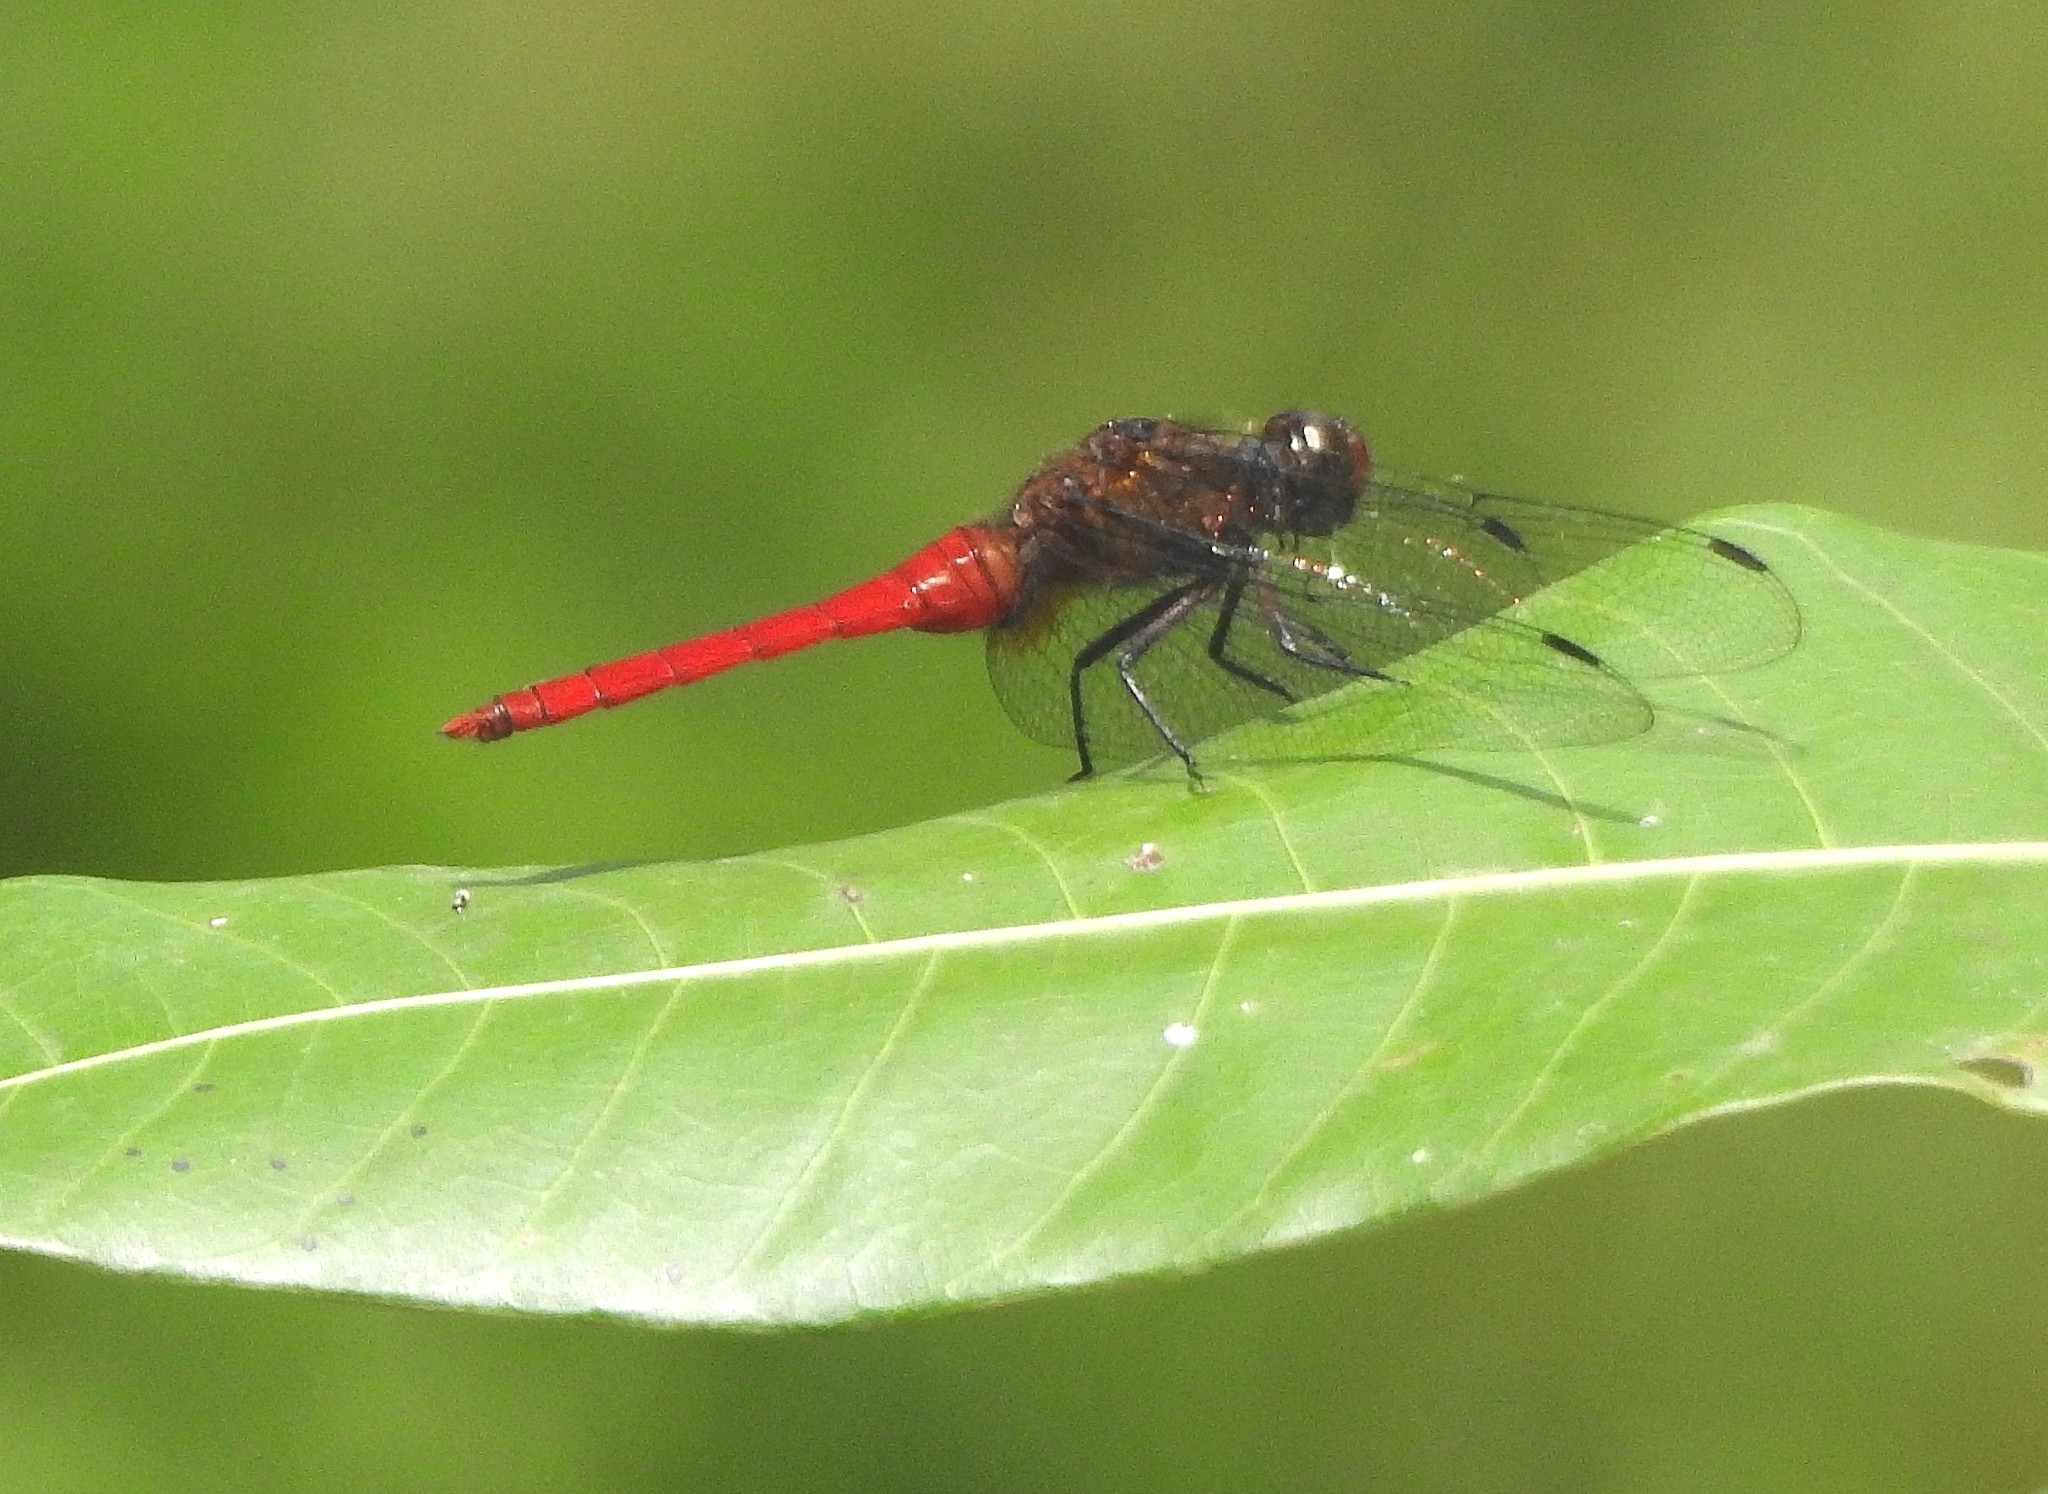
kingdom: Animalia
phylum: Arthropoda
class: Insecta
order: Odonata
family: Libellulidae
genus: Orthetrum
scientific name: Orthetrum chrysis
